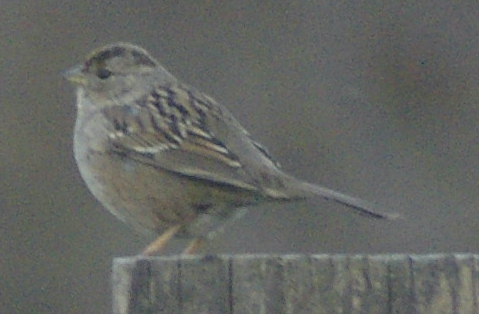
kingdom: Animalia
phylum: Chordata
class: Aves
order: Passeriformes
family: Passerellidae
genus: Zonotrichia
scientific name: Zonotrichia atricapilla
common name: Golden-crowned sparrow
